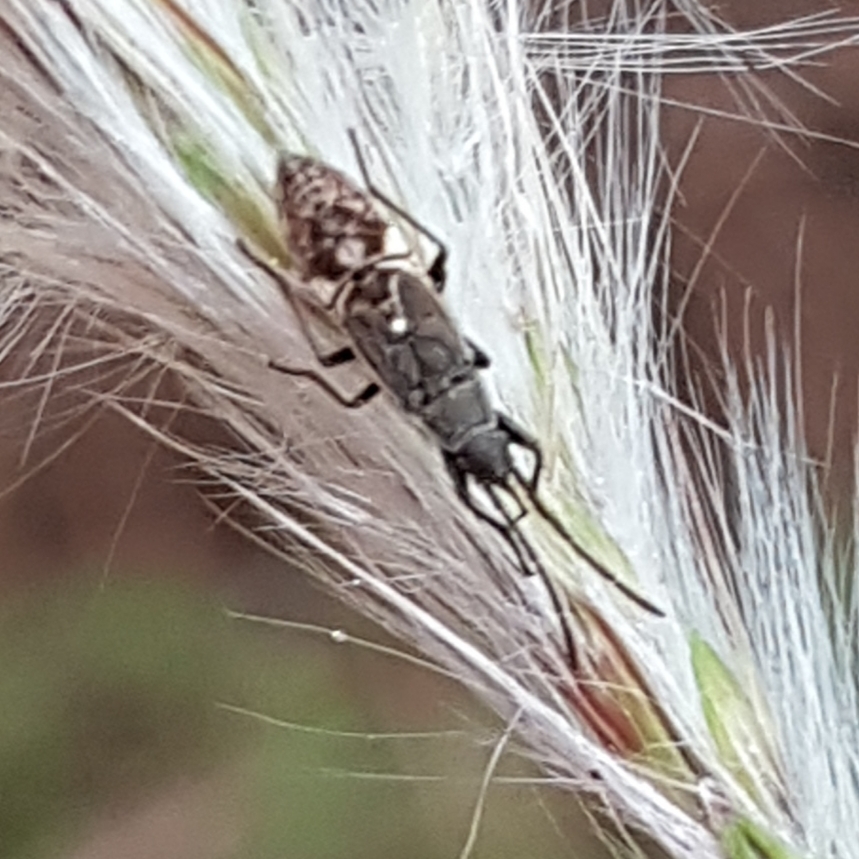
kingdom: Animalia
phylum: Arthropoda
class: Insecta
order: Hemiptera
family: Rhyparochromidae
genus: Paromius
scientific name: Paromius gracilis
